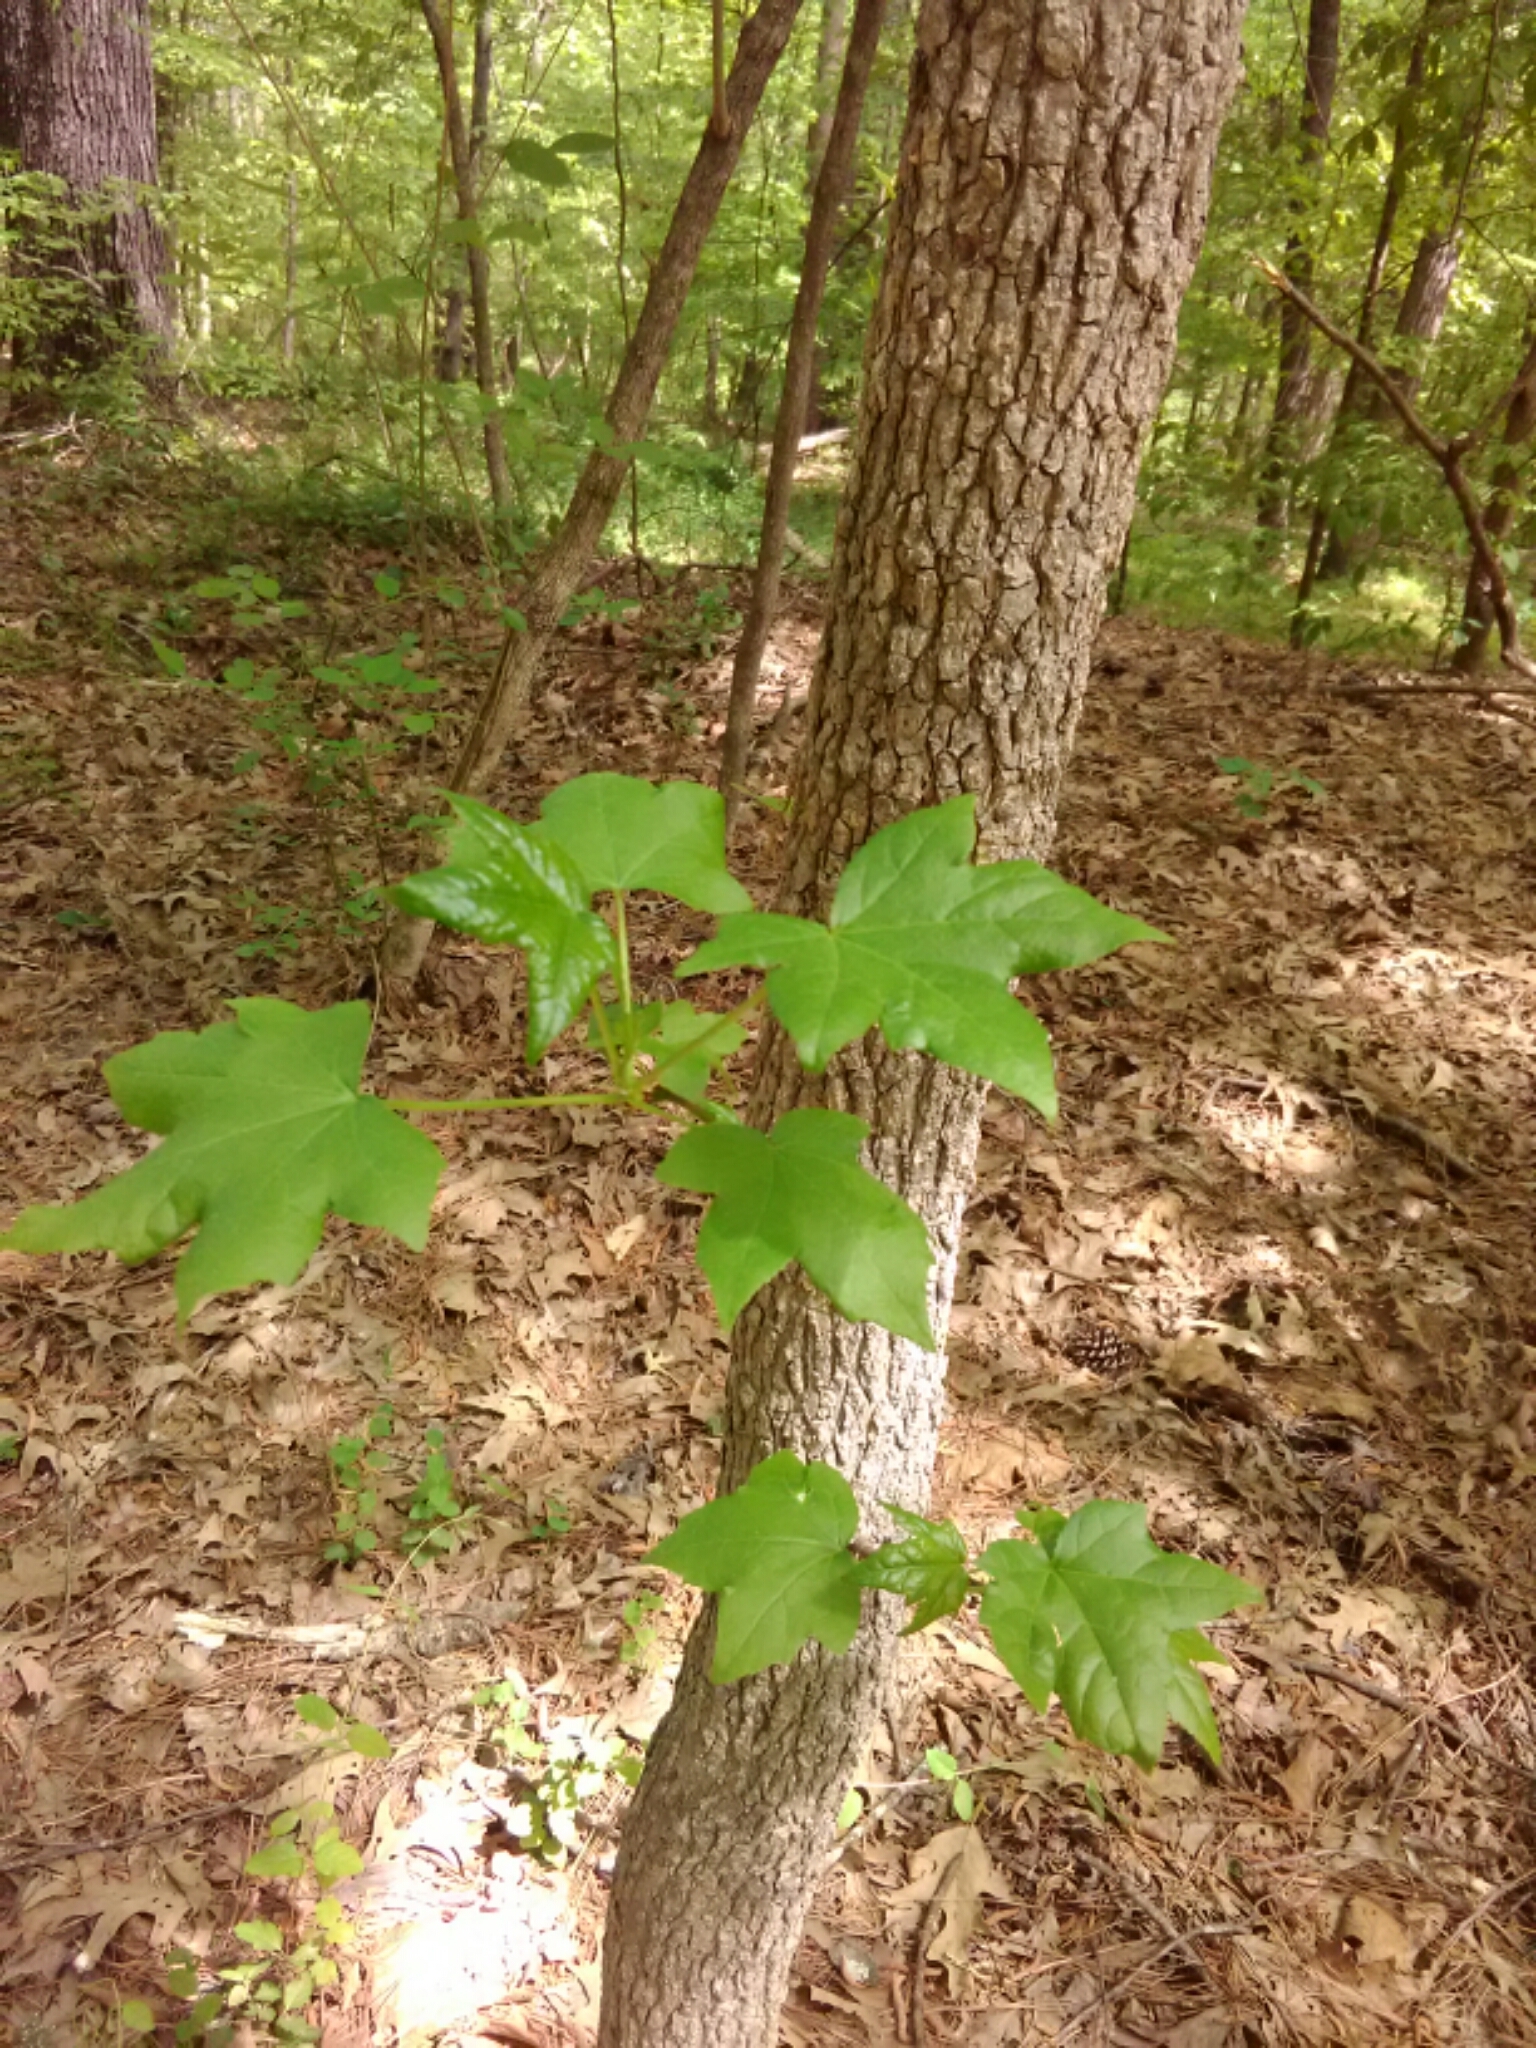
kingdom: Plantae
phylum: Tracheophyta
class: Magnoliopsida
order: Saxifragales
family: Altingiaceae
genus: Liquidambar
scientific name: Liquidambar styraciflua
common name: Sweet gum
